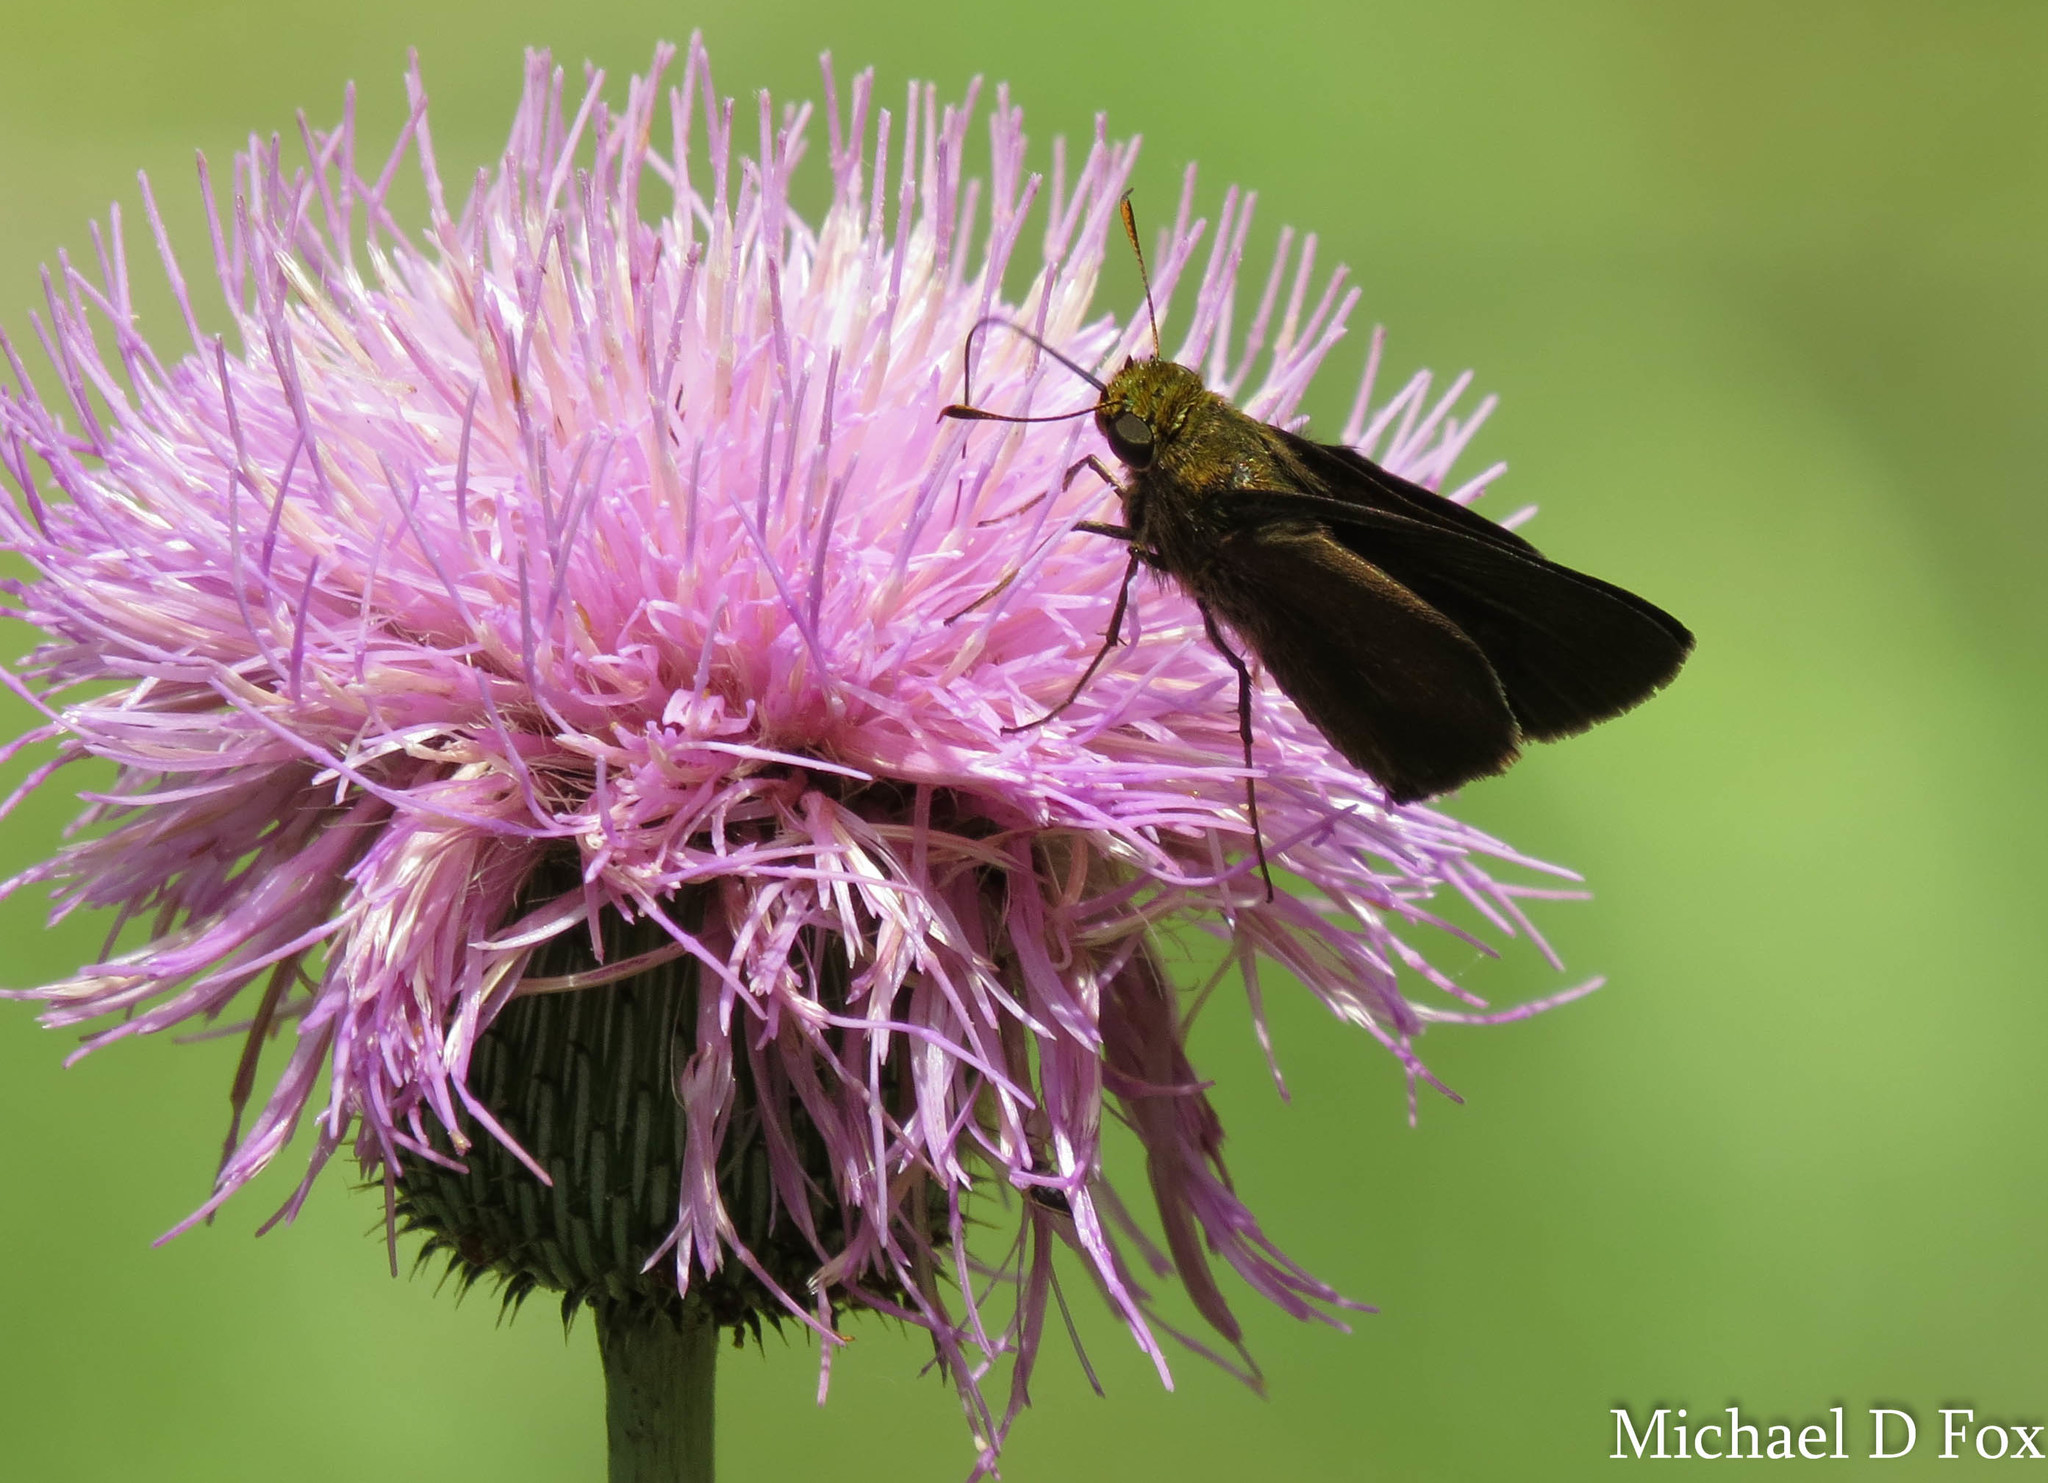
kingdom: Animalia
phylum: Arthropoda
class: Insecta
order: Lepidoptera
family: Hesperiidae
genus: Euphyes
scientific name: Euphyes vestris
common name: Dun skipper
